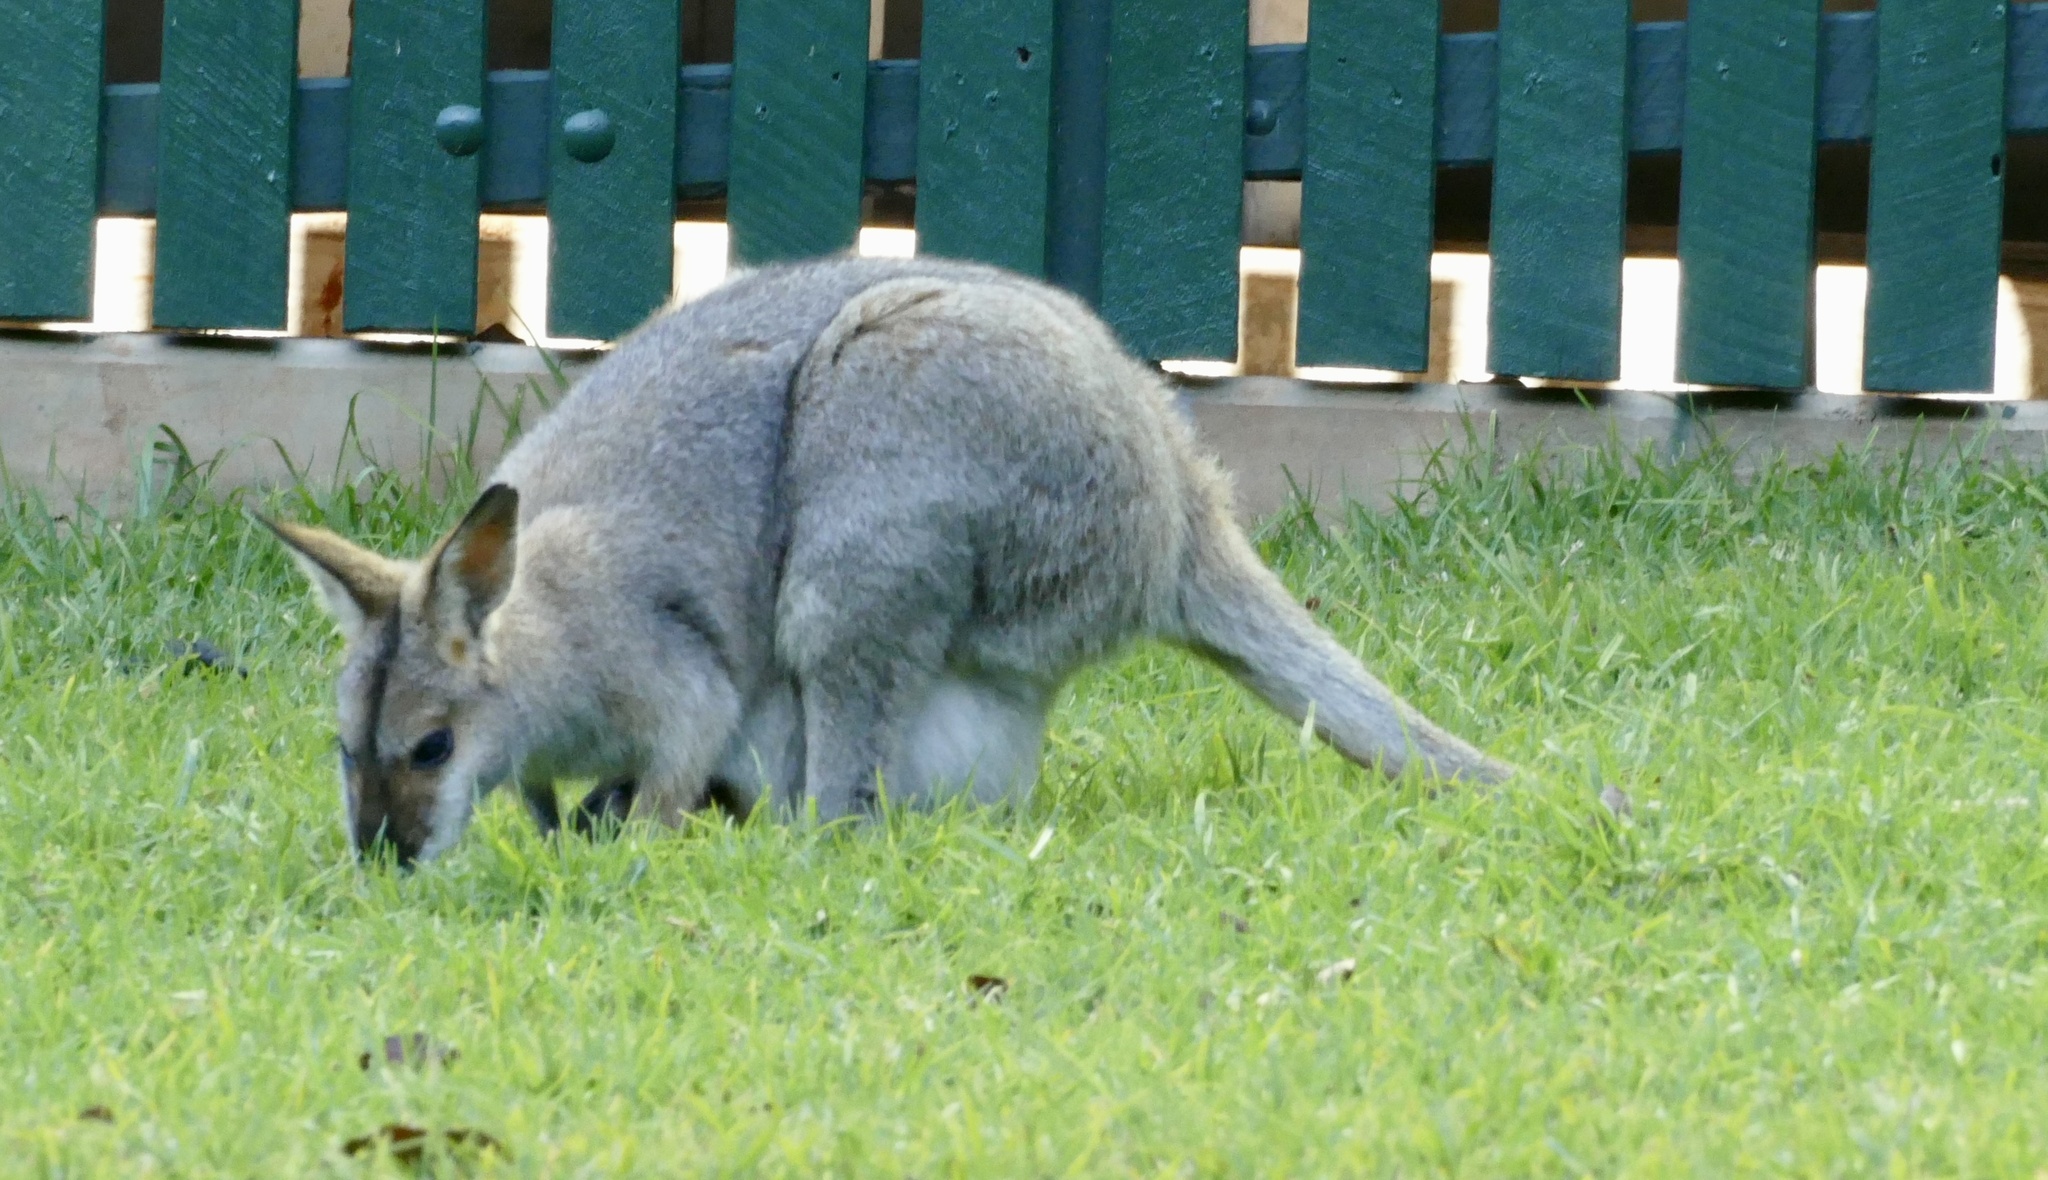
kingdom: Animalia
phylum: Chordata
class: Mammalia
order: Diprotodontia
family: Macropodidae
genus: Notamacropus
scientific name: Notamacropus rufogriseus
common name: Red-necked wallaby
